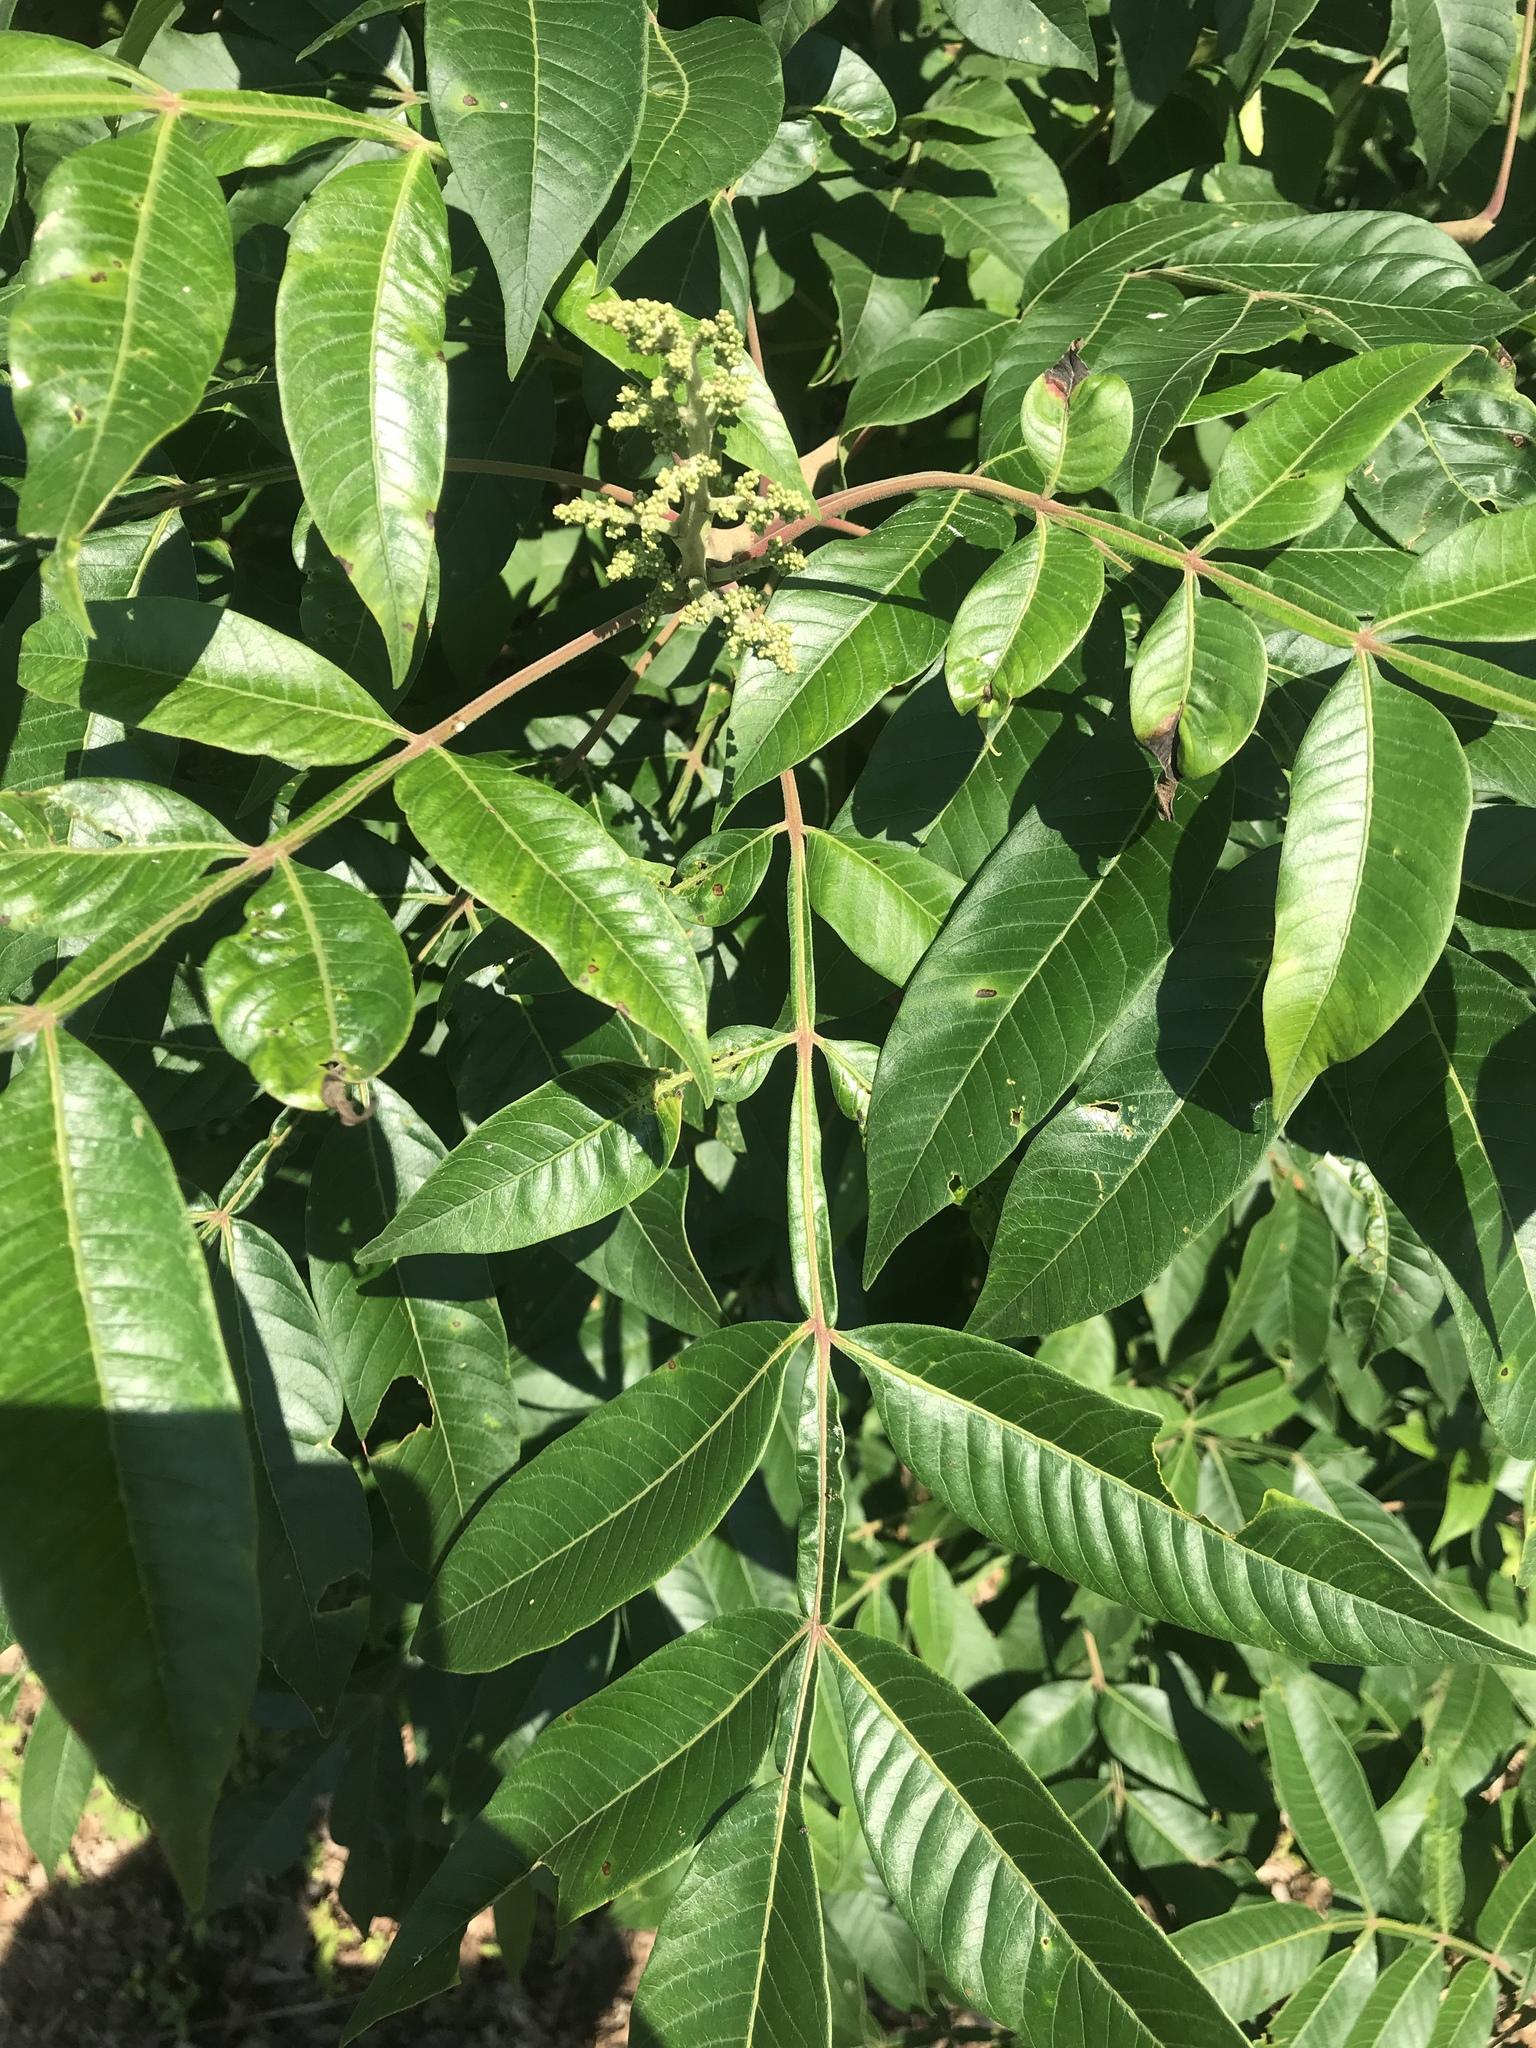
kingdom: Plantae
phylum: Tracheophyta
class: Magnoliopsida
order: Sapindales
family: Anacardiaceae
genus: Rhus
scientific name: Rhus copallina
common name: Shining sumac
